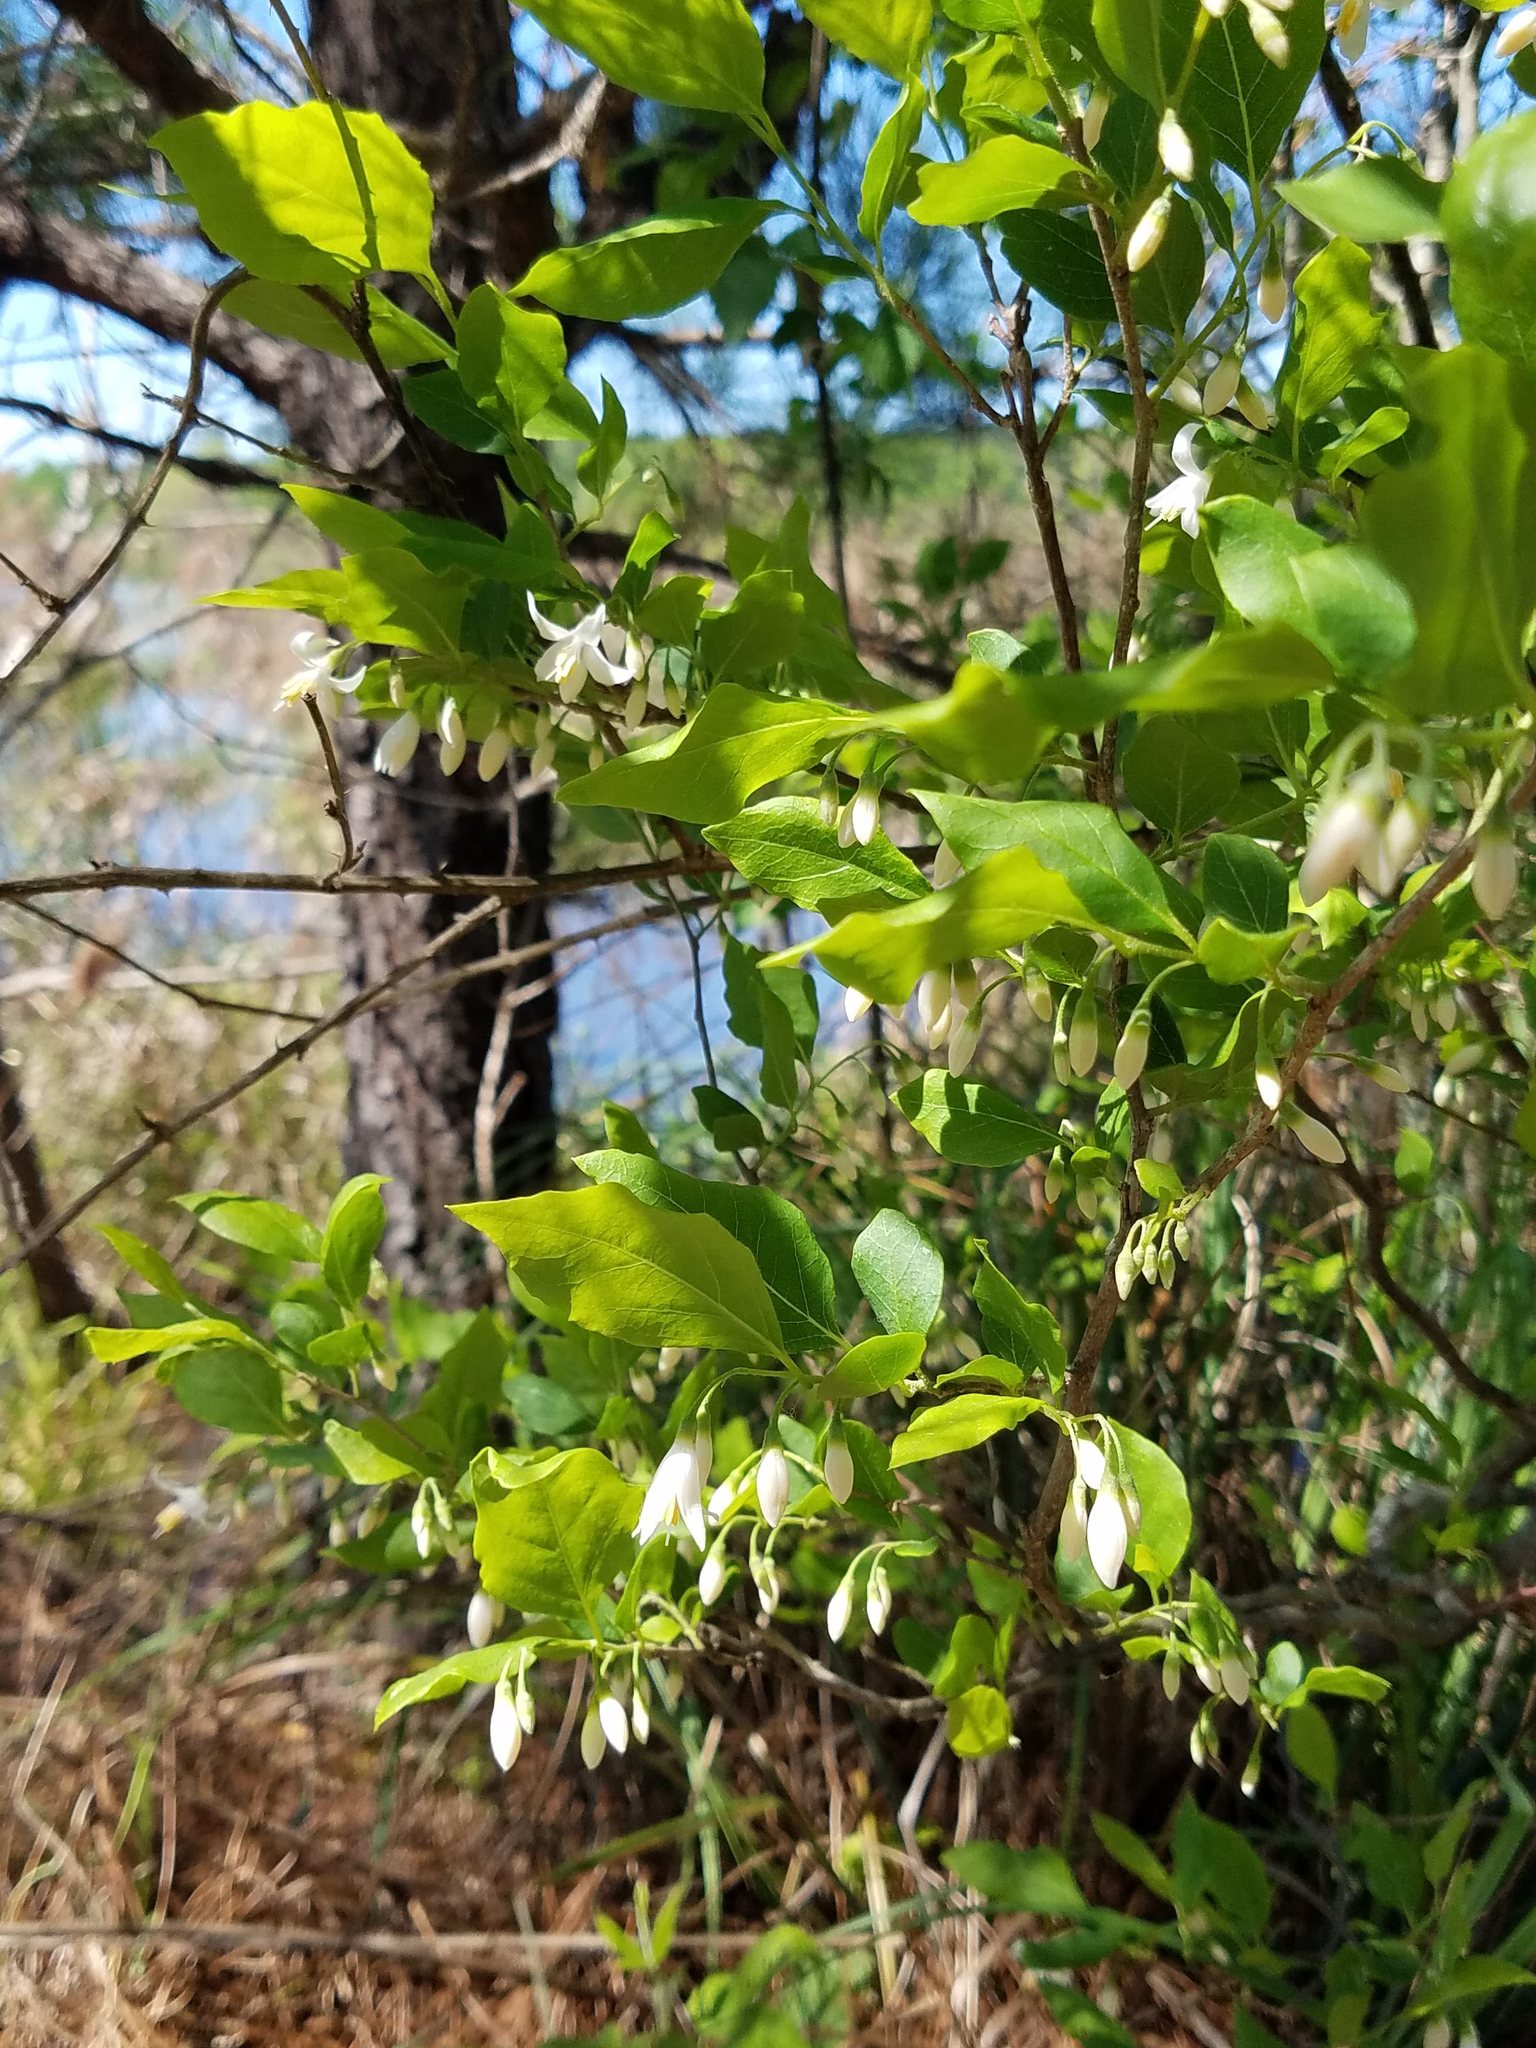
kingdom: Plantae
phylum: Tracheophyta
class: Magnoliopsida
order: Ericales
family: Styracaceae
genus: Styrax
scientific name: Styrax americanus
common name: American snowbell
